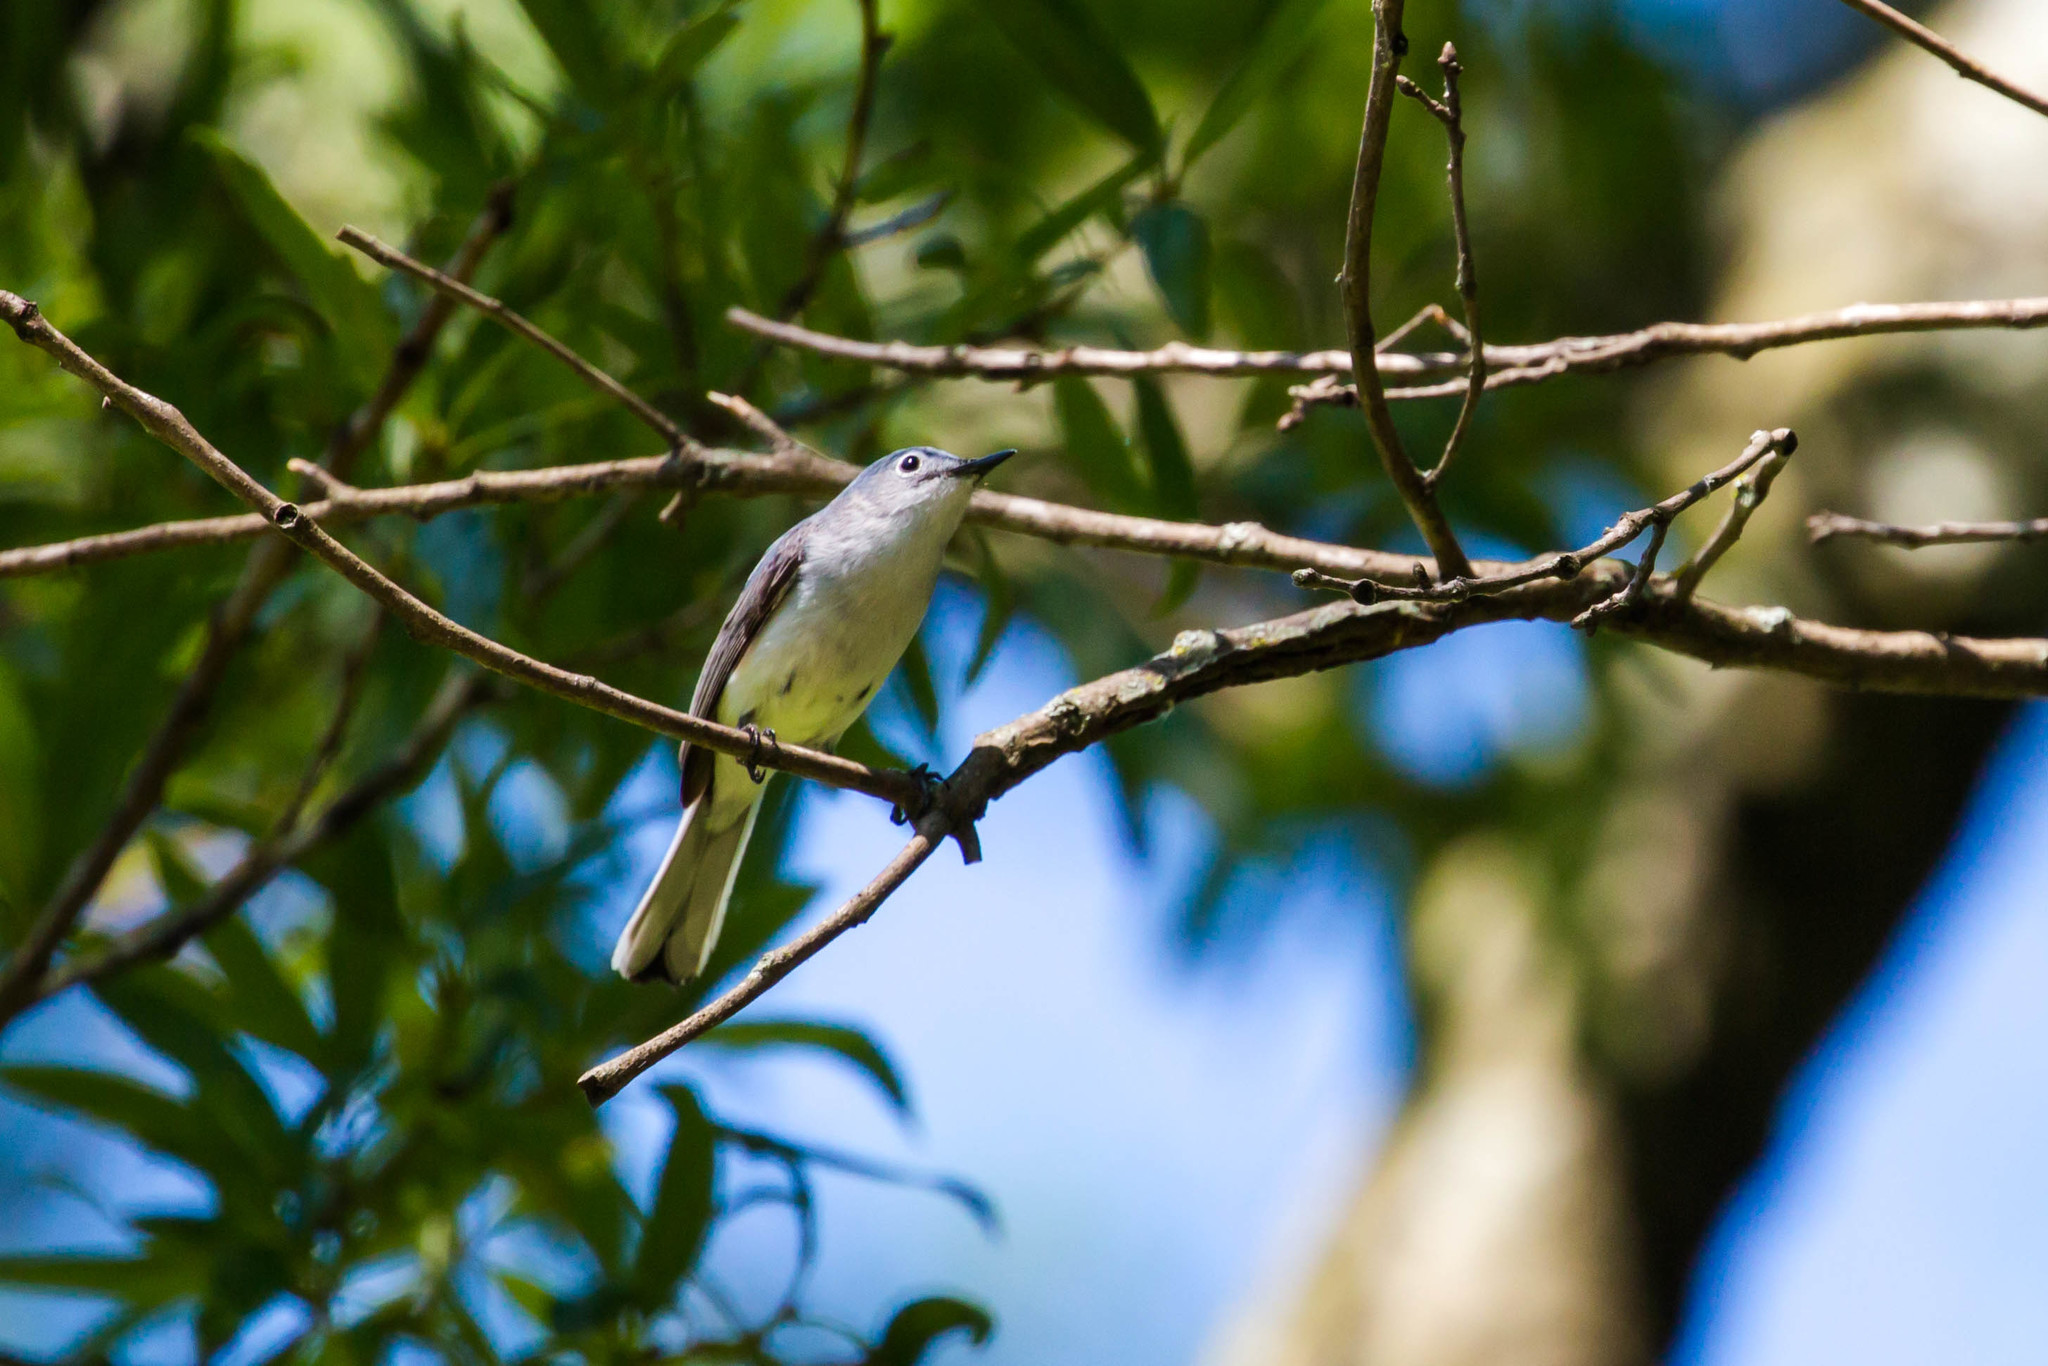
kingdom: Animalia
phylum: Chordata
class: Aves
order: Passeriformes
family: Polioptilidae
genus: Polioptila
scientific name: Polioptila caerulea
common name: Blue-gray gnatcatcher
